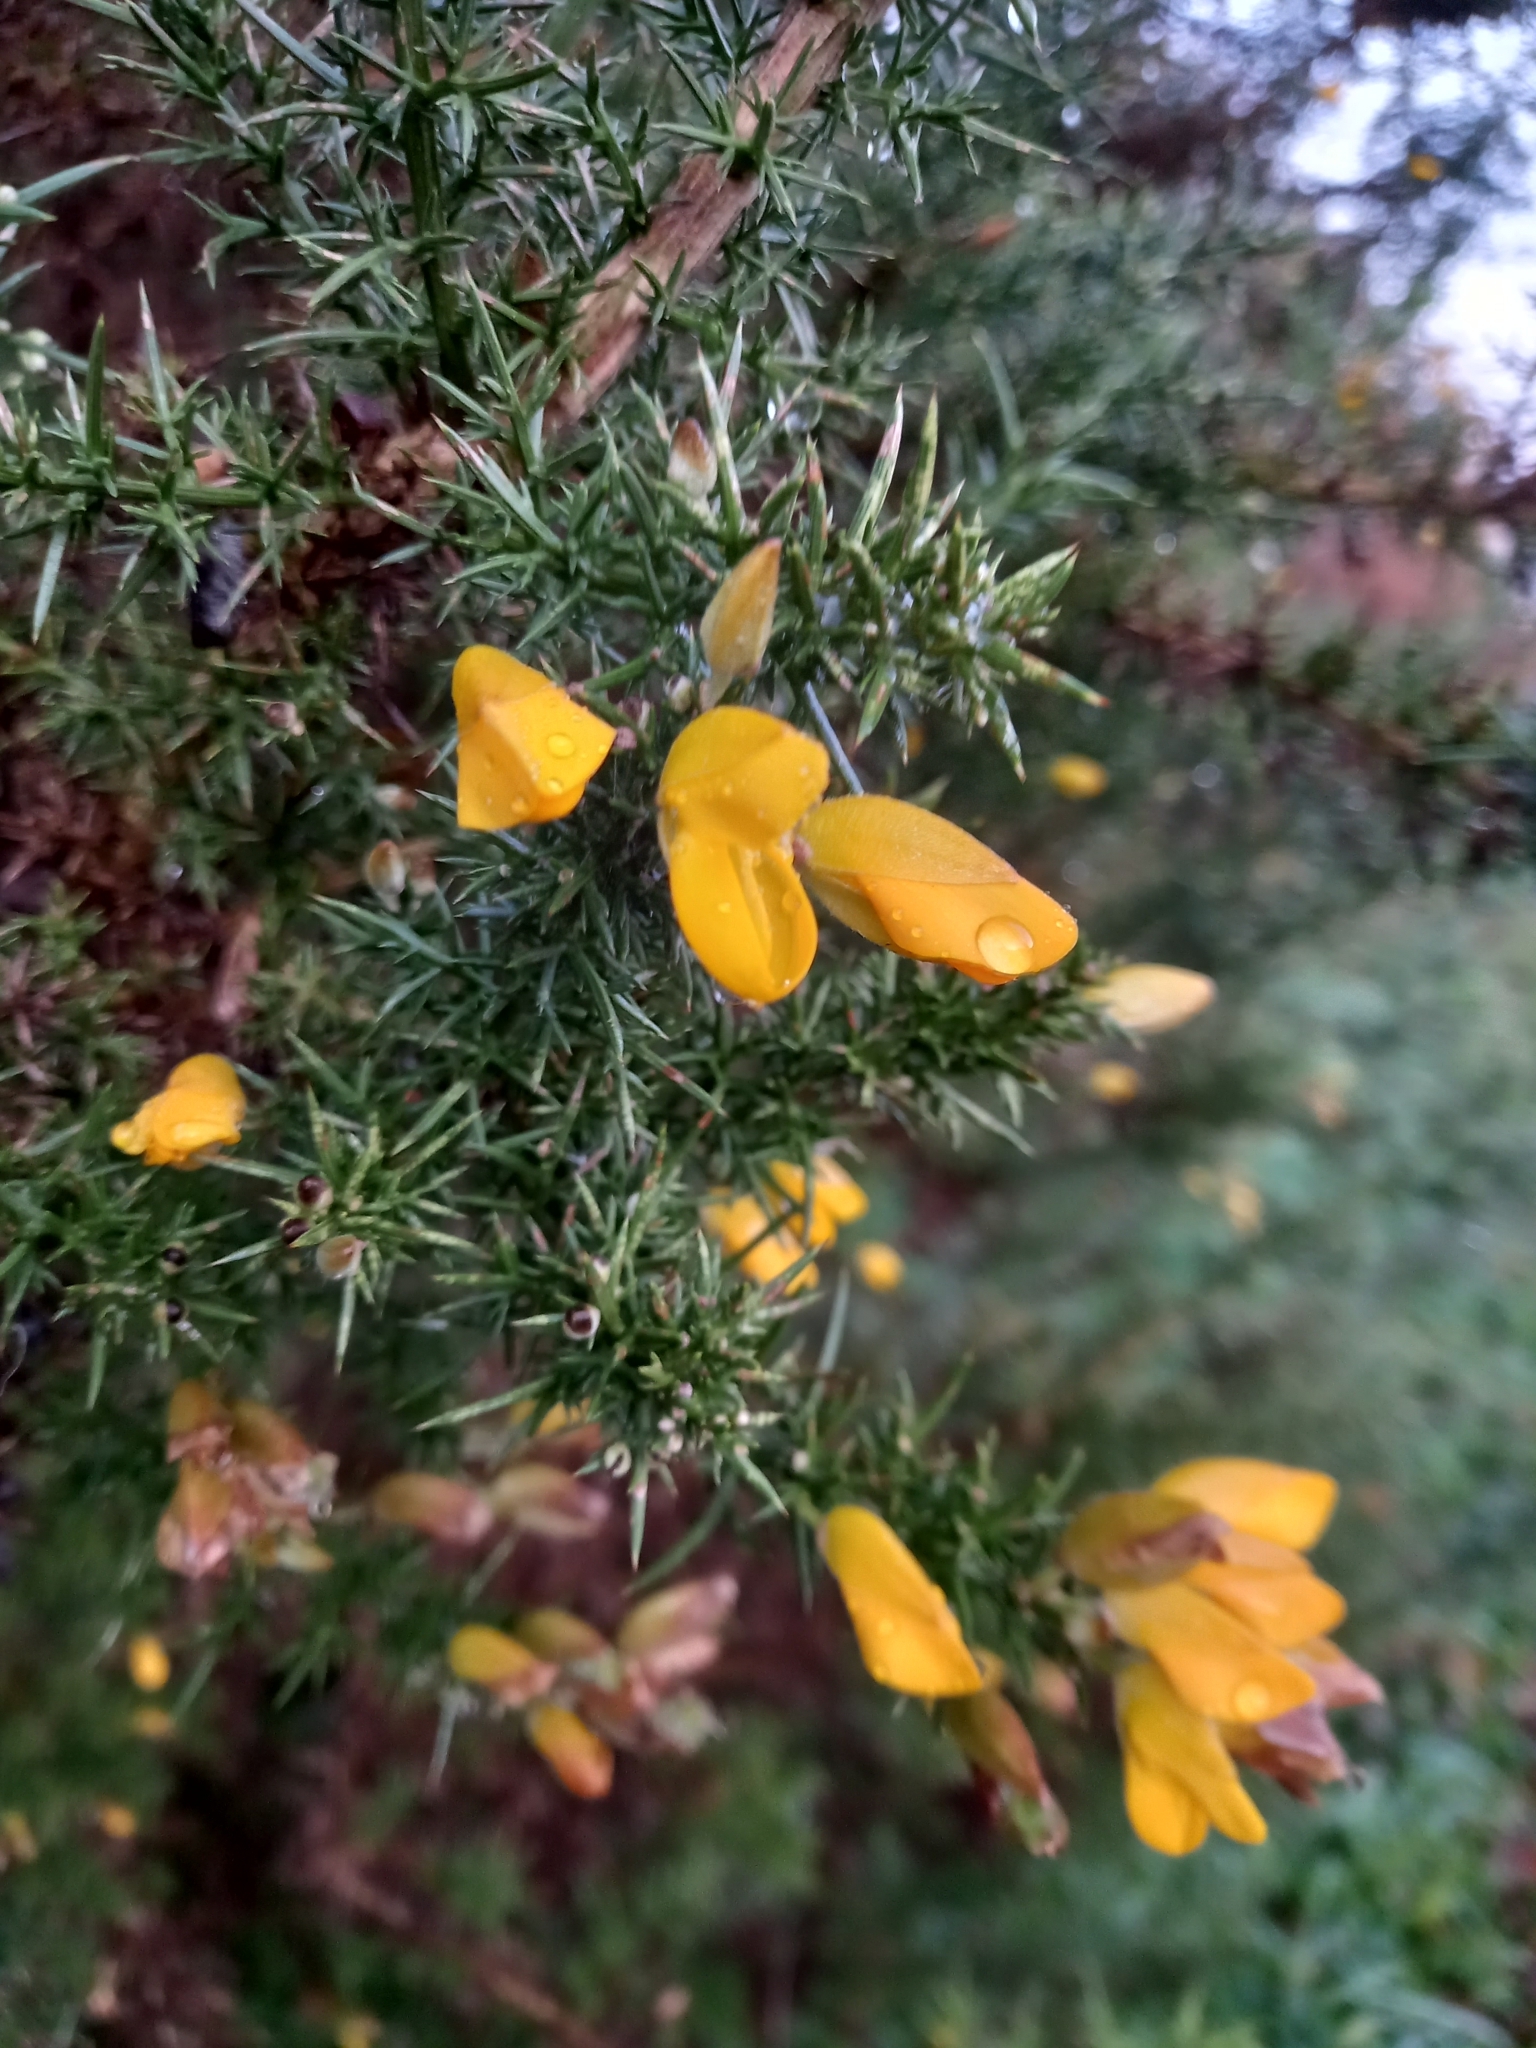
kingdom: Plantae
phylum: Tracheophyta
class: Magnoliopsida
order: Fabales
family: Fabaceae
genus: Ulex
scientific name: Ulex europaeus
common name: Common gorse
